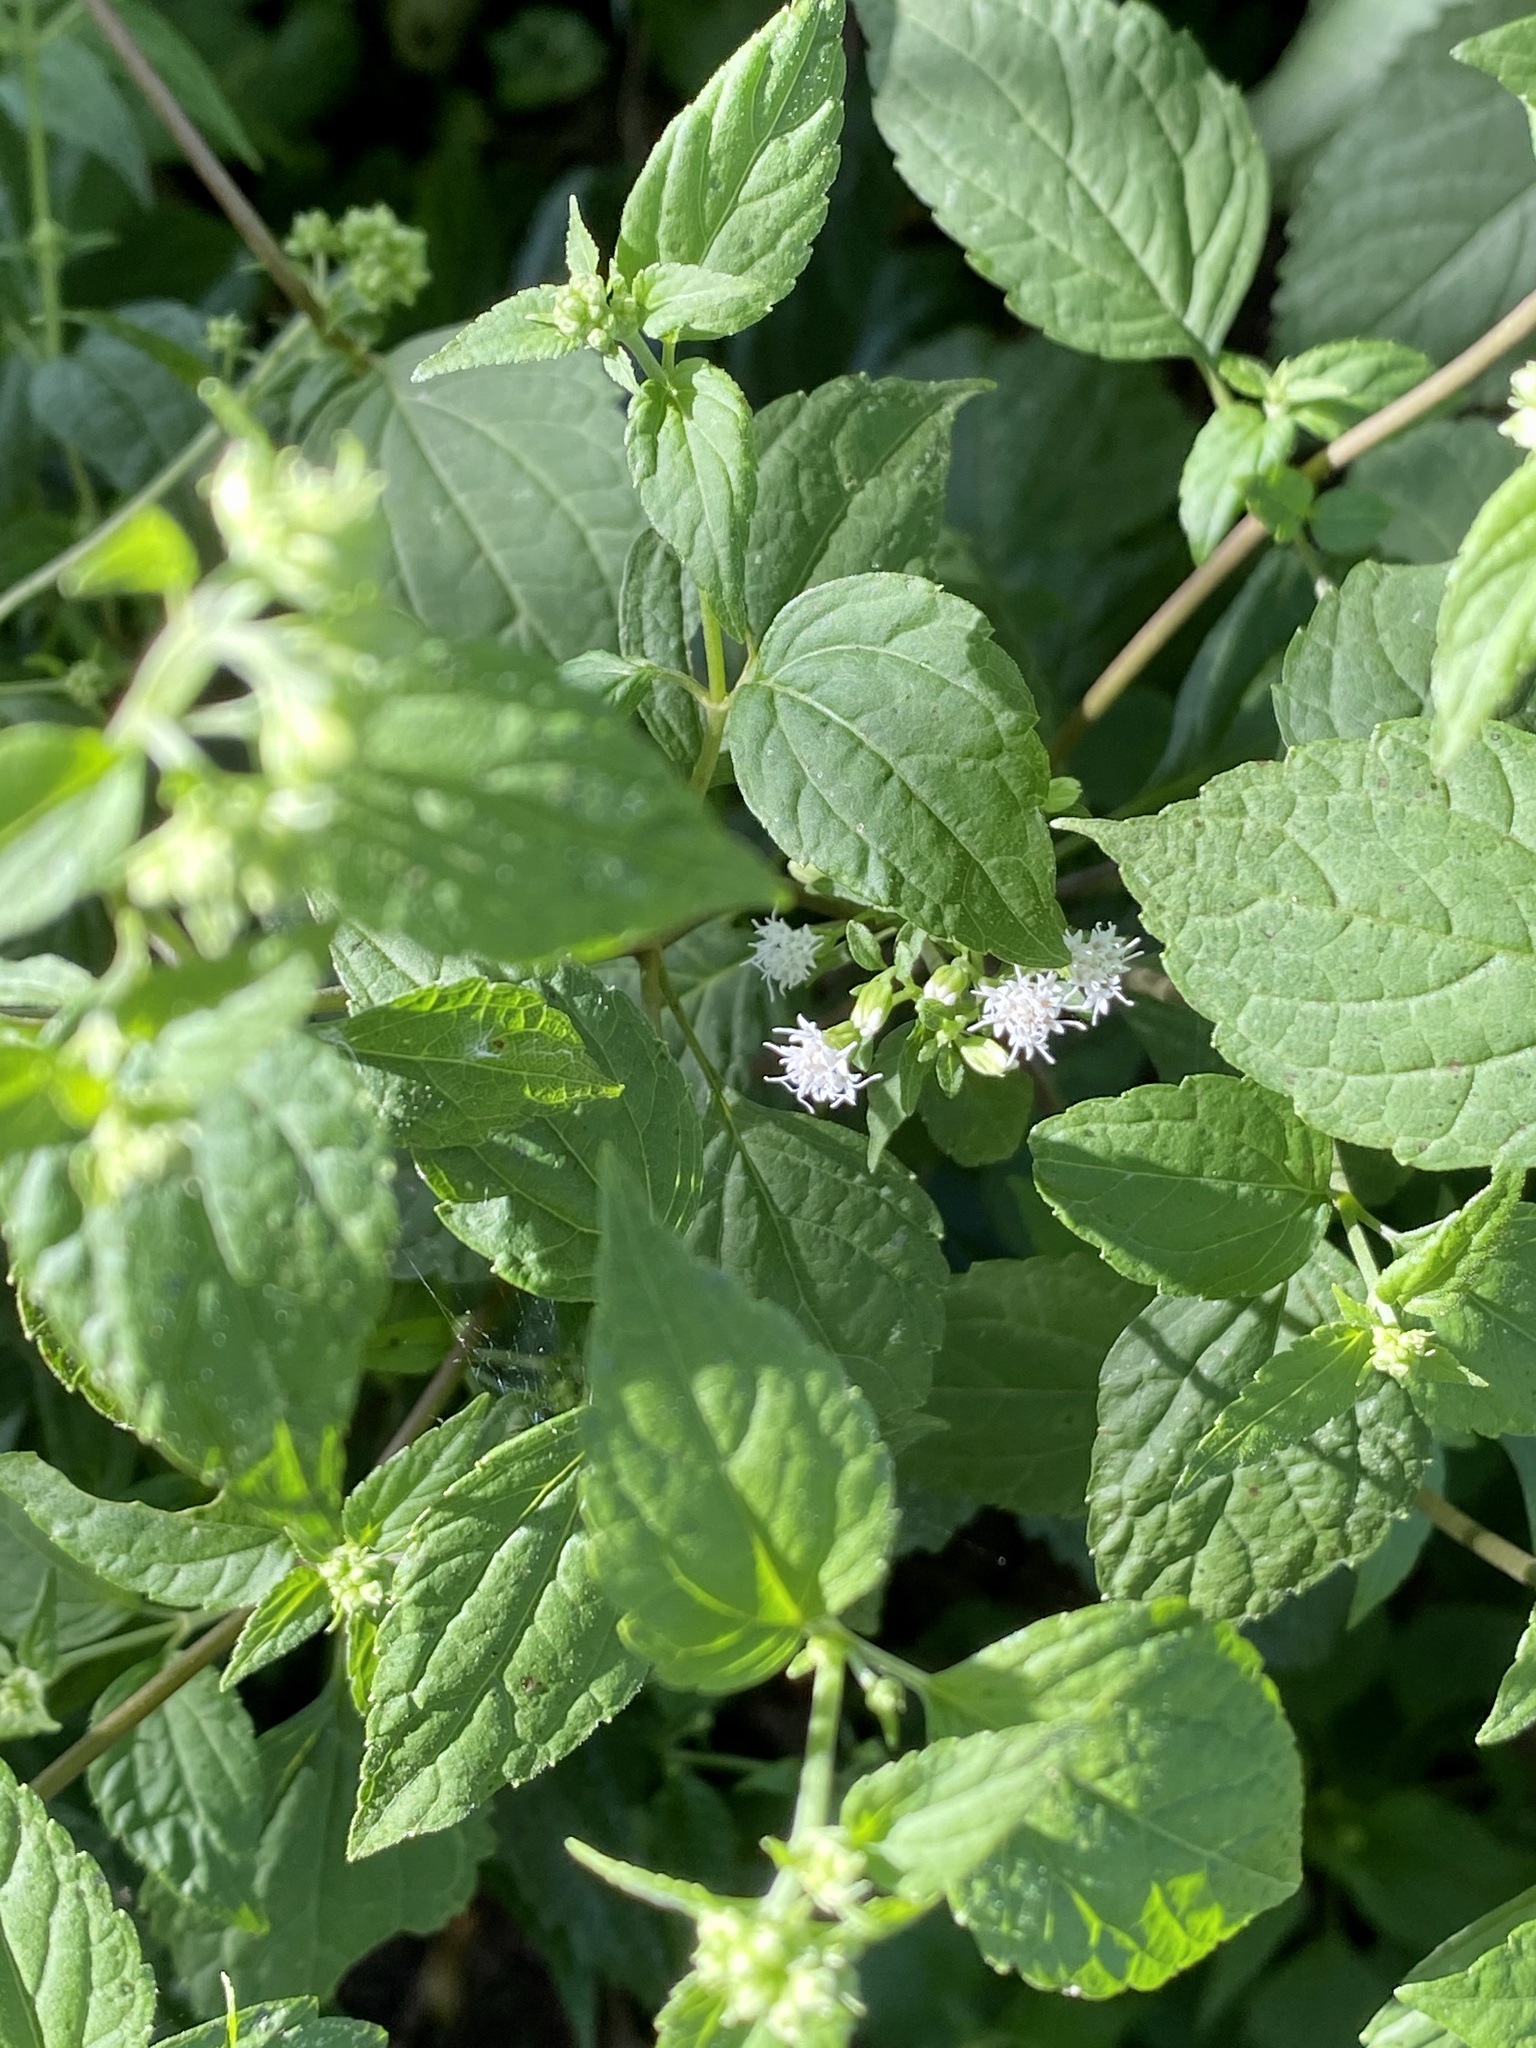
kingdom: Plantae
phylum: Tracheophyta
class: Magnoliopsida
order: Asterales
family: Asteraceae
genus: Ageratina
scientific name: Ageratina altissima
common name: White snakeroot
